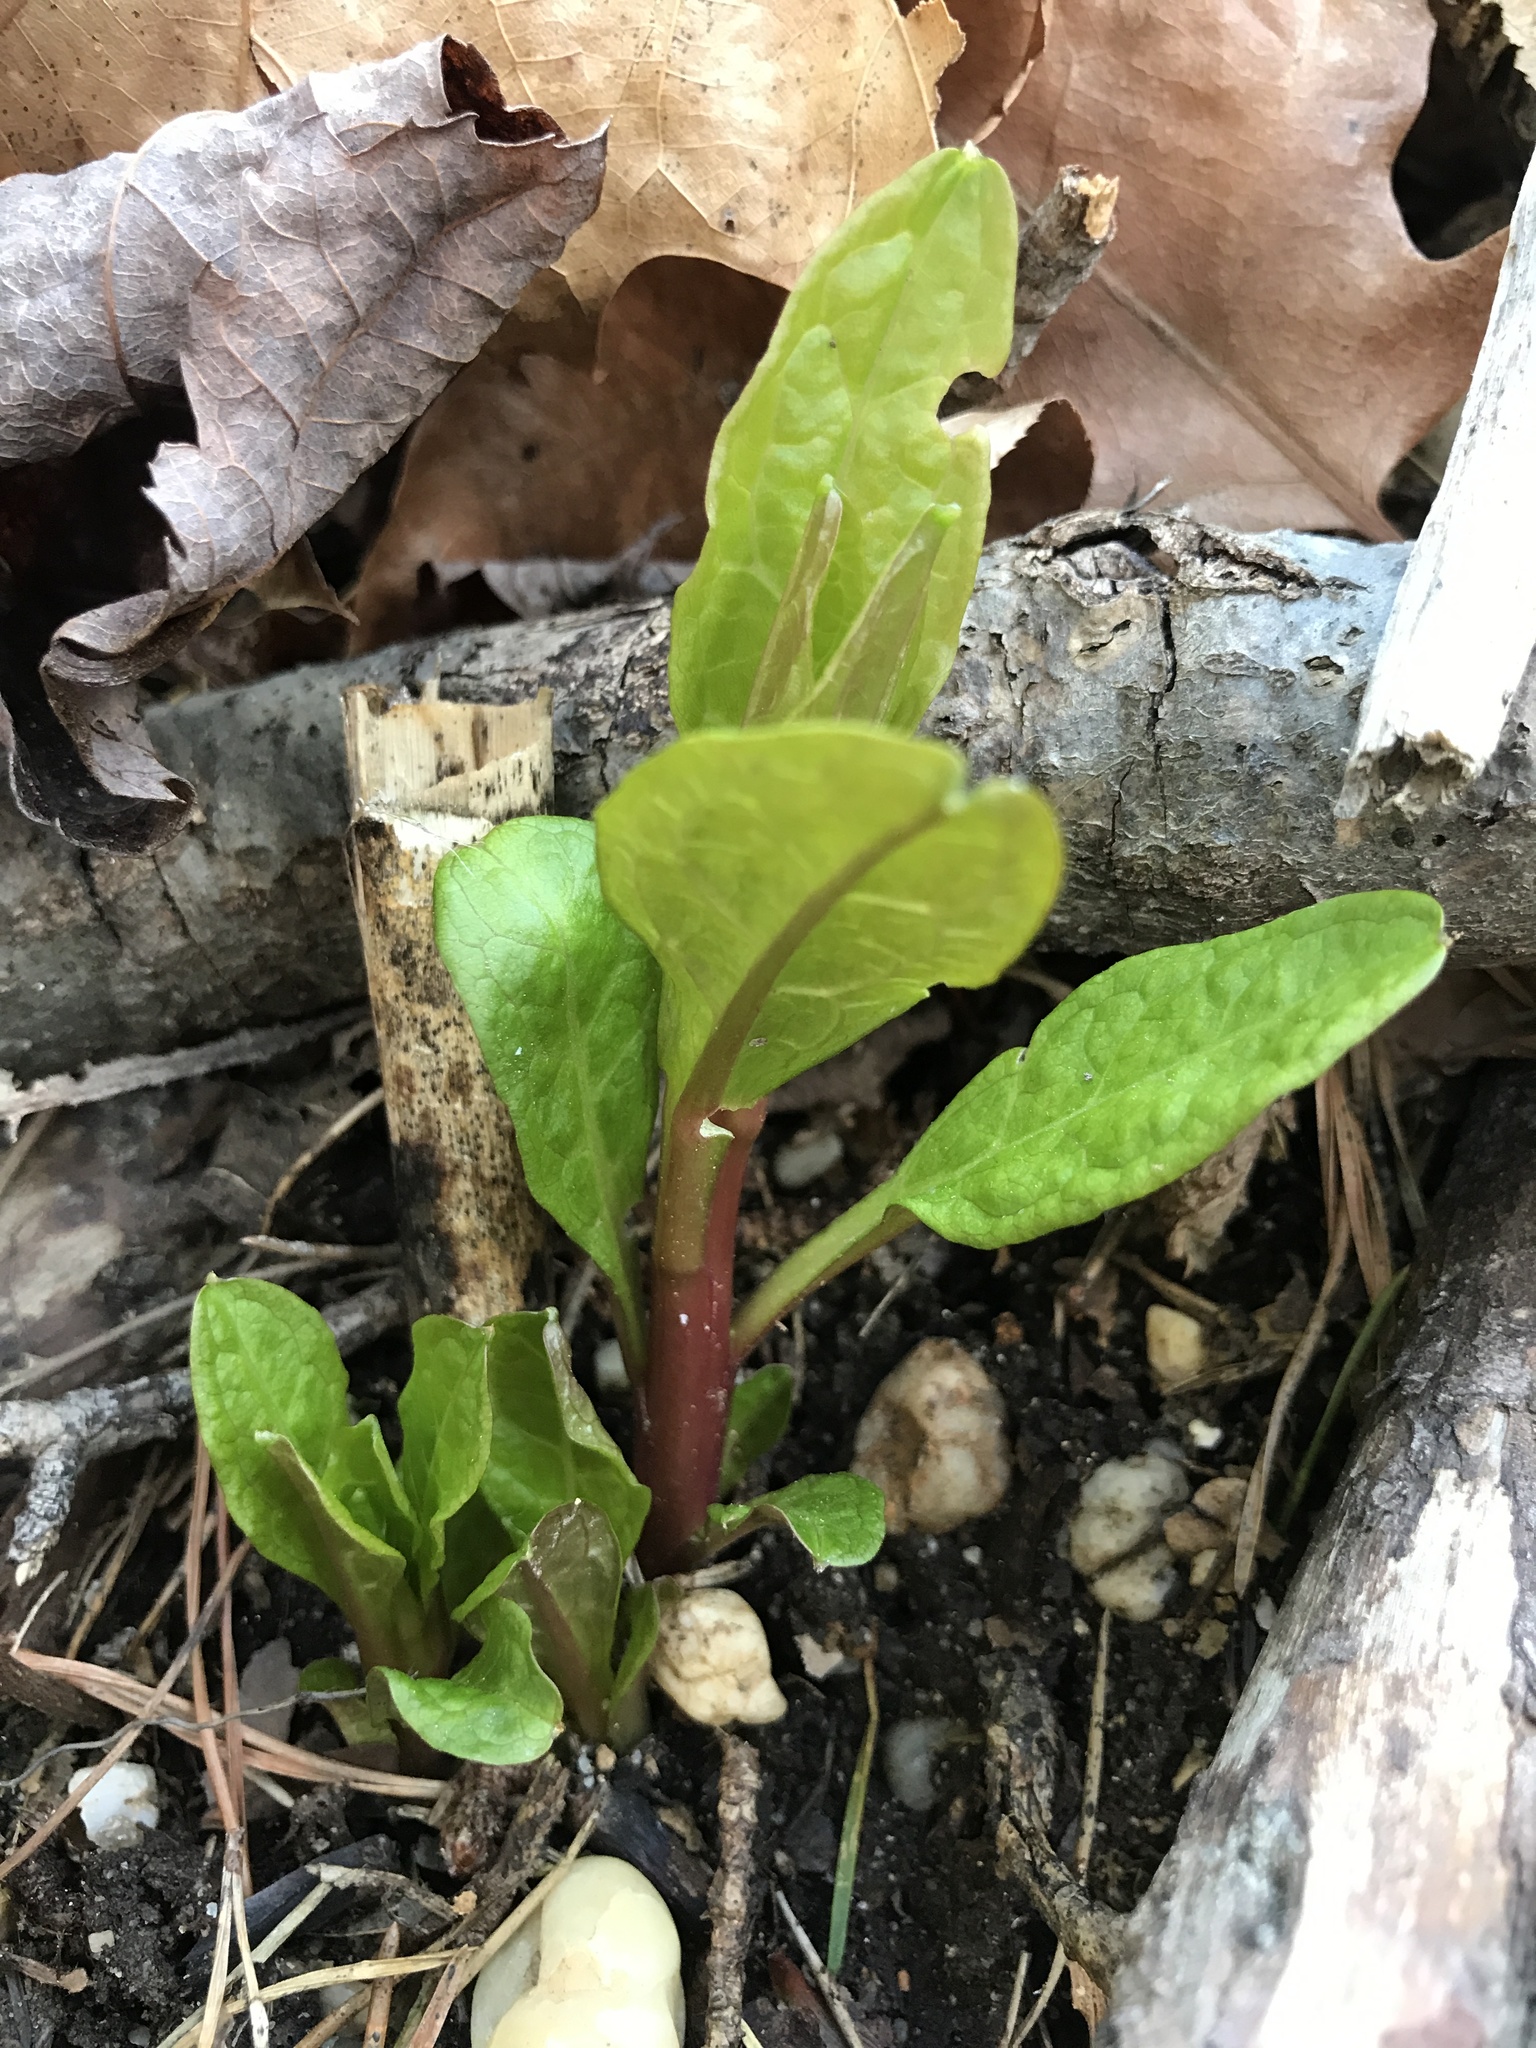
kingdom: Plantae
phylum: Tracheophyta
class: Magnoliopsida
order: Caryophyllales
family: Phytolaccaceae
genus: Phytolacca
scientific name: Phytolacca americana
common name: American pokeweed
